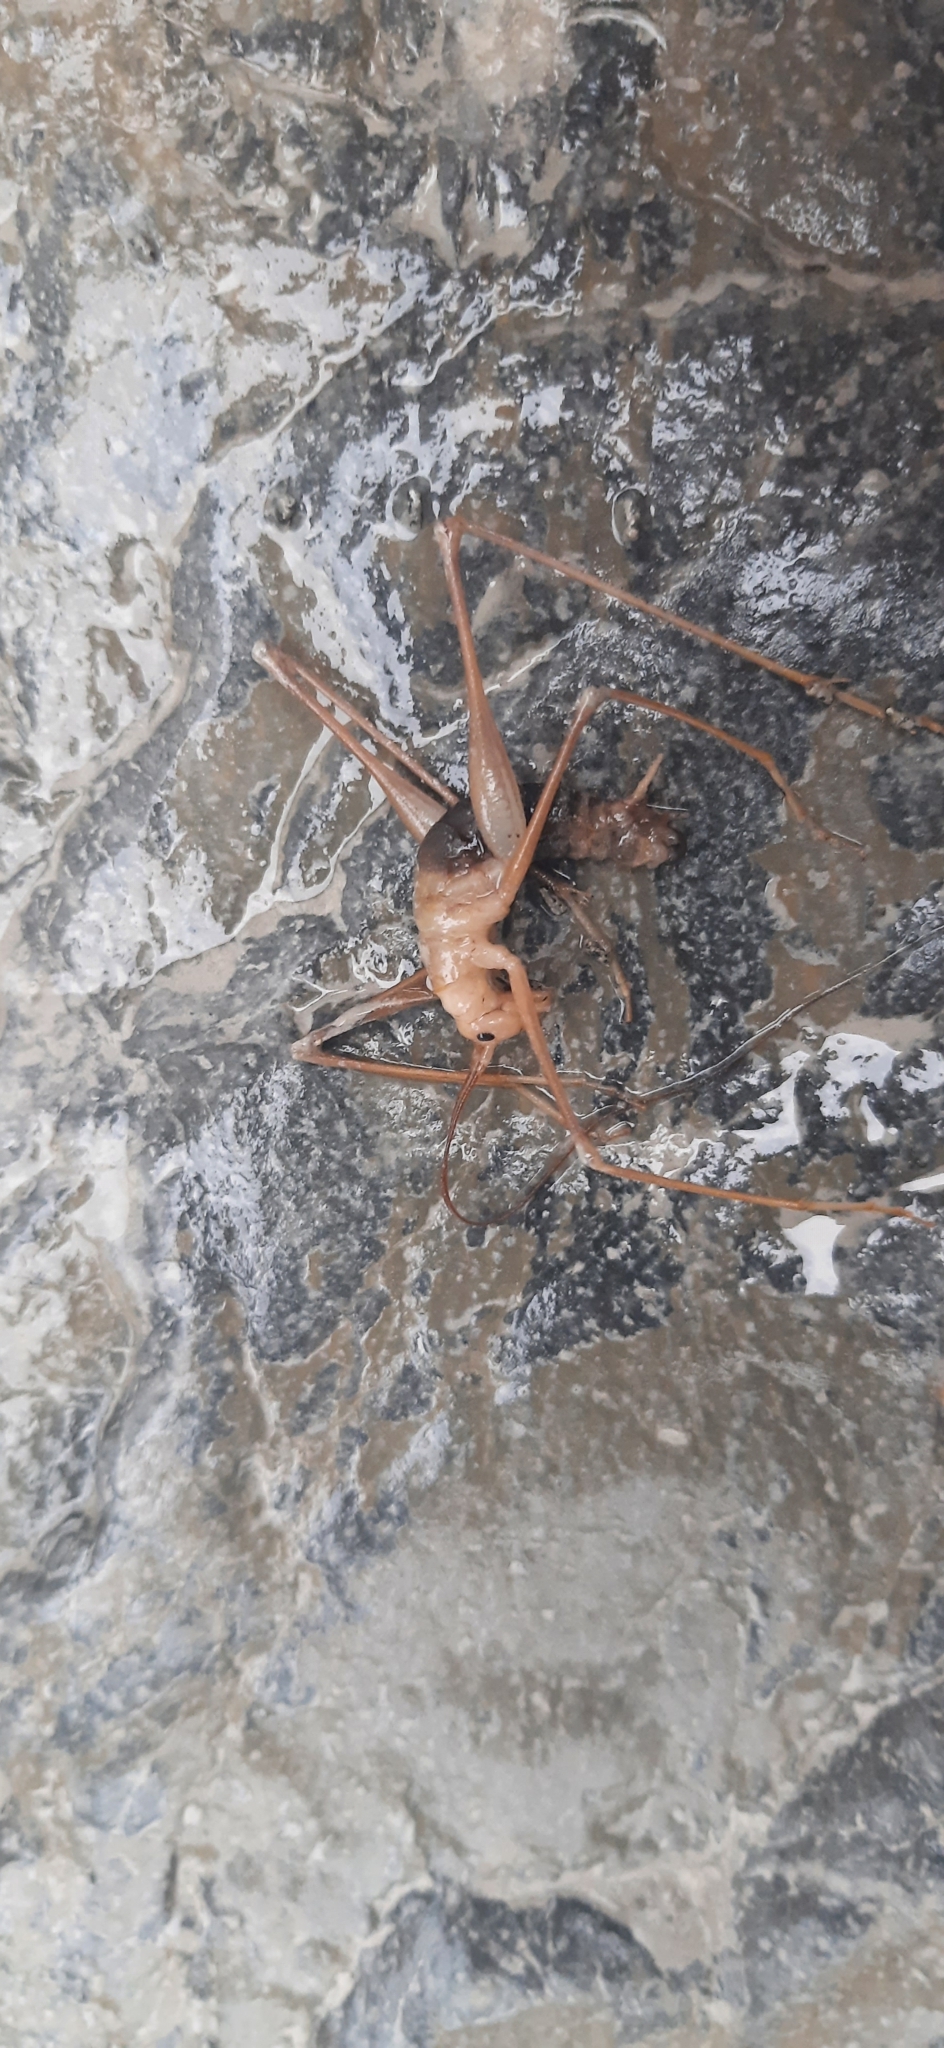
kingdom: Animalia
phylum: Arthropoda
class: Insecta
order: Orthoptera
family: Rhaphidophoridae
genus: Dolichopoda
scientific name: Dolichopoda azami
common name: Azam's cave-cricket
